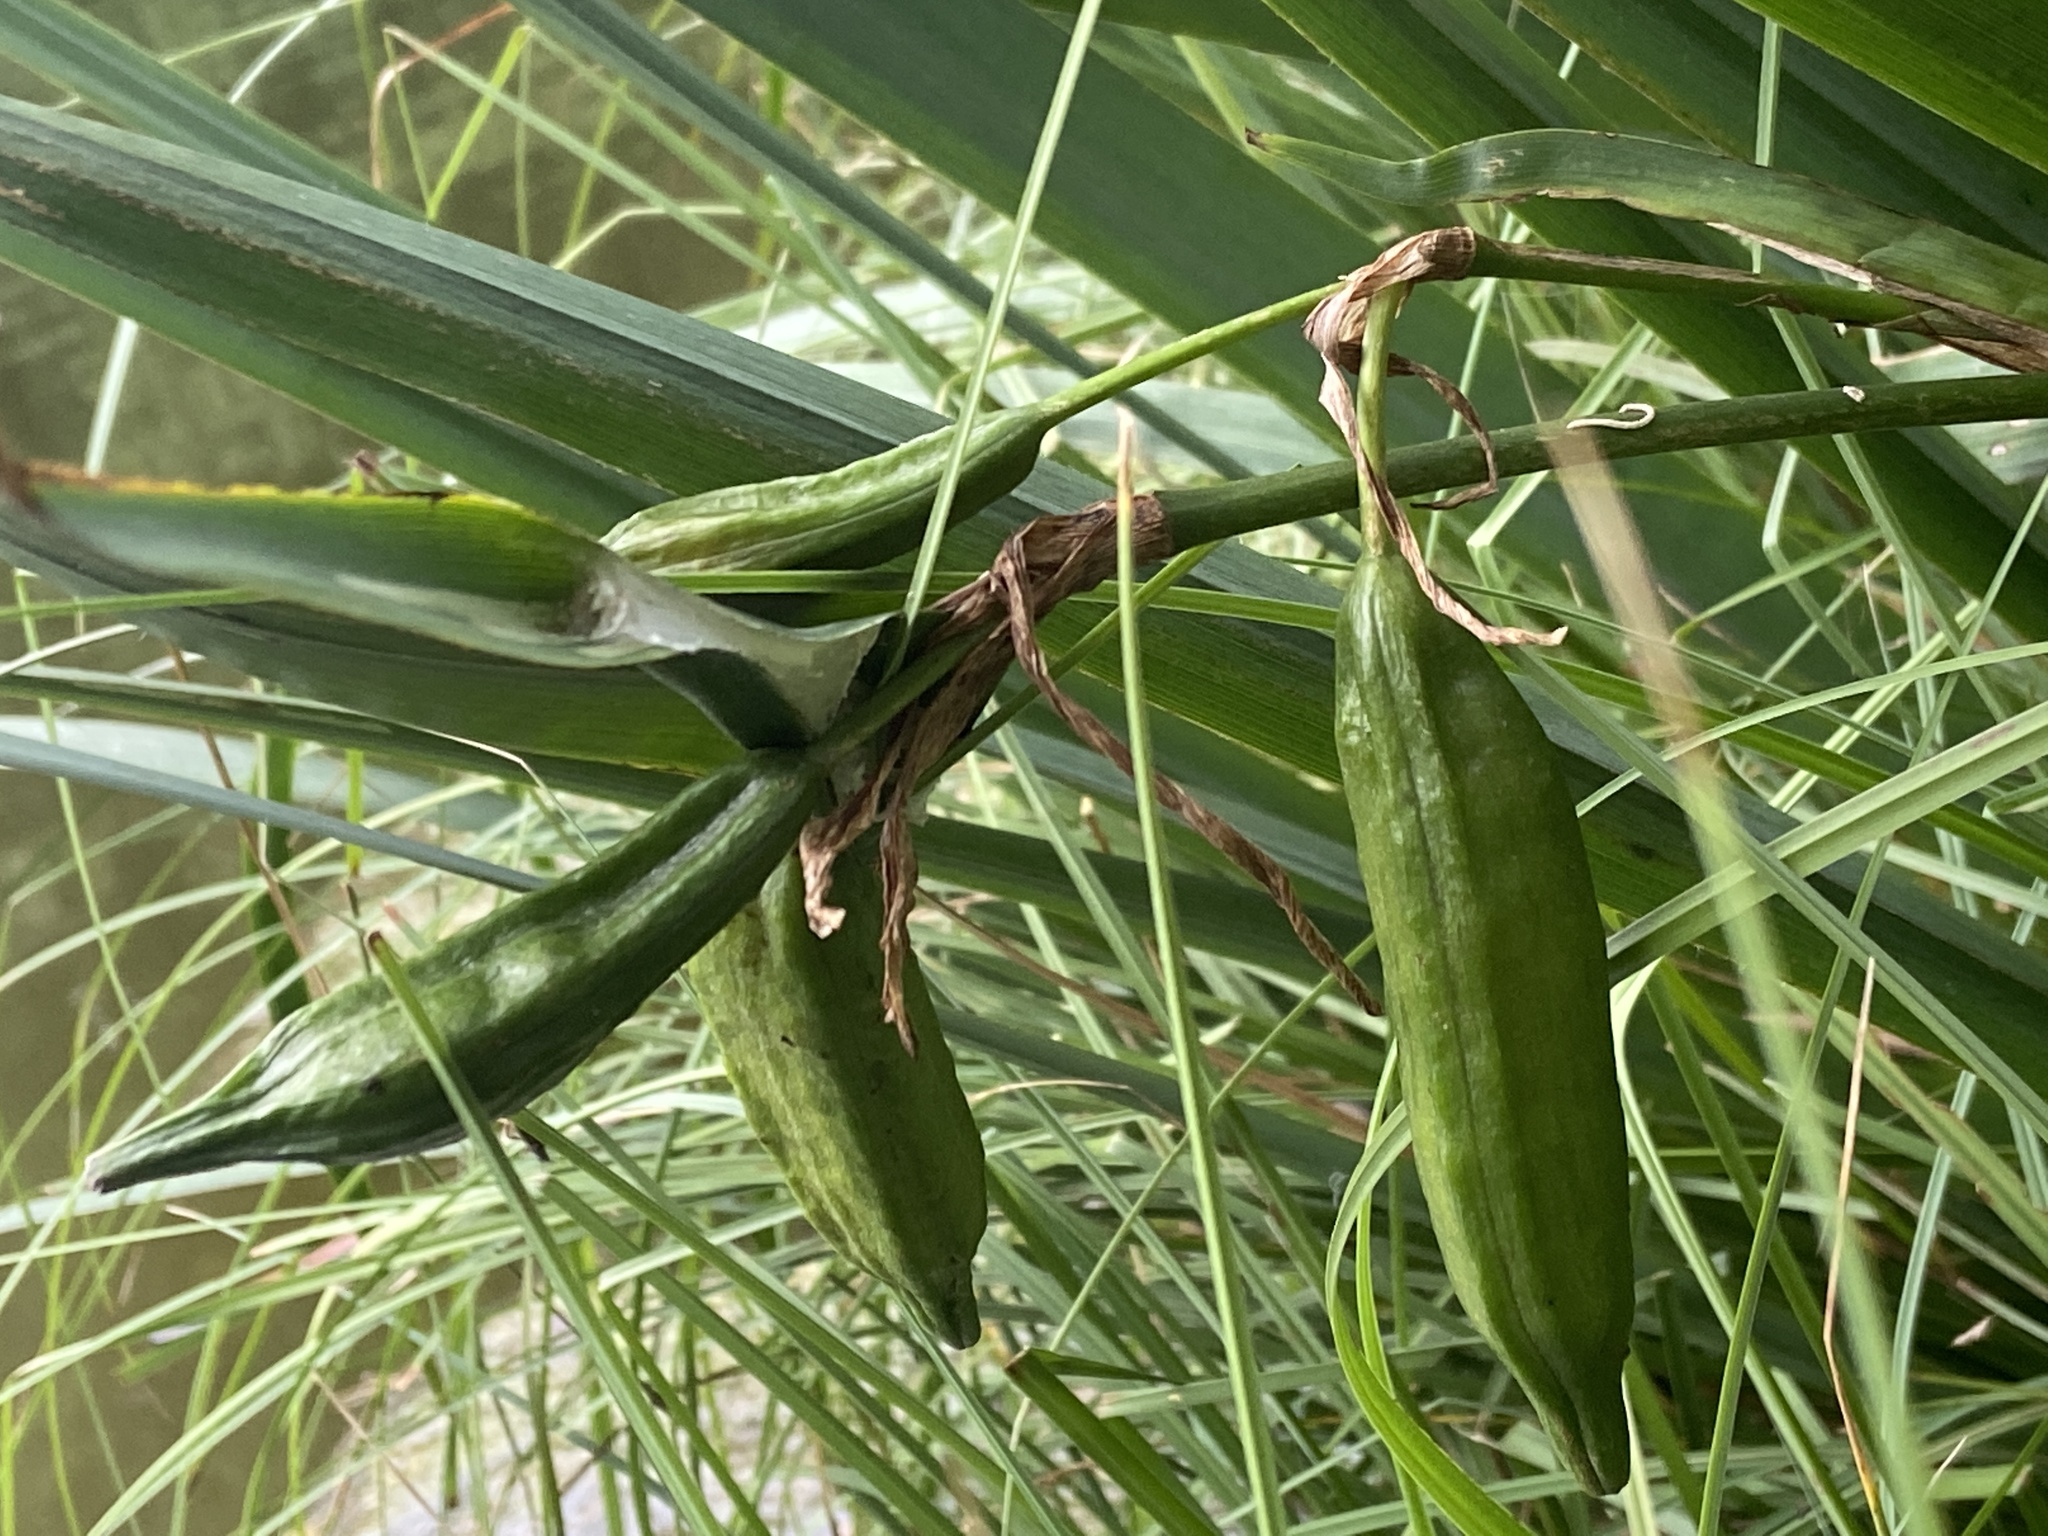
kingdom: Plantae
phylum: Tracheophyta
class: Liliopsida
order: Asparagales
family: Iridaceae
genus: Iris
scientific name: Iris pseudacorus
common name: Yellow flag
